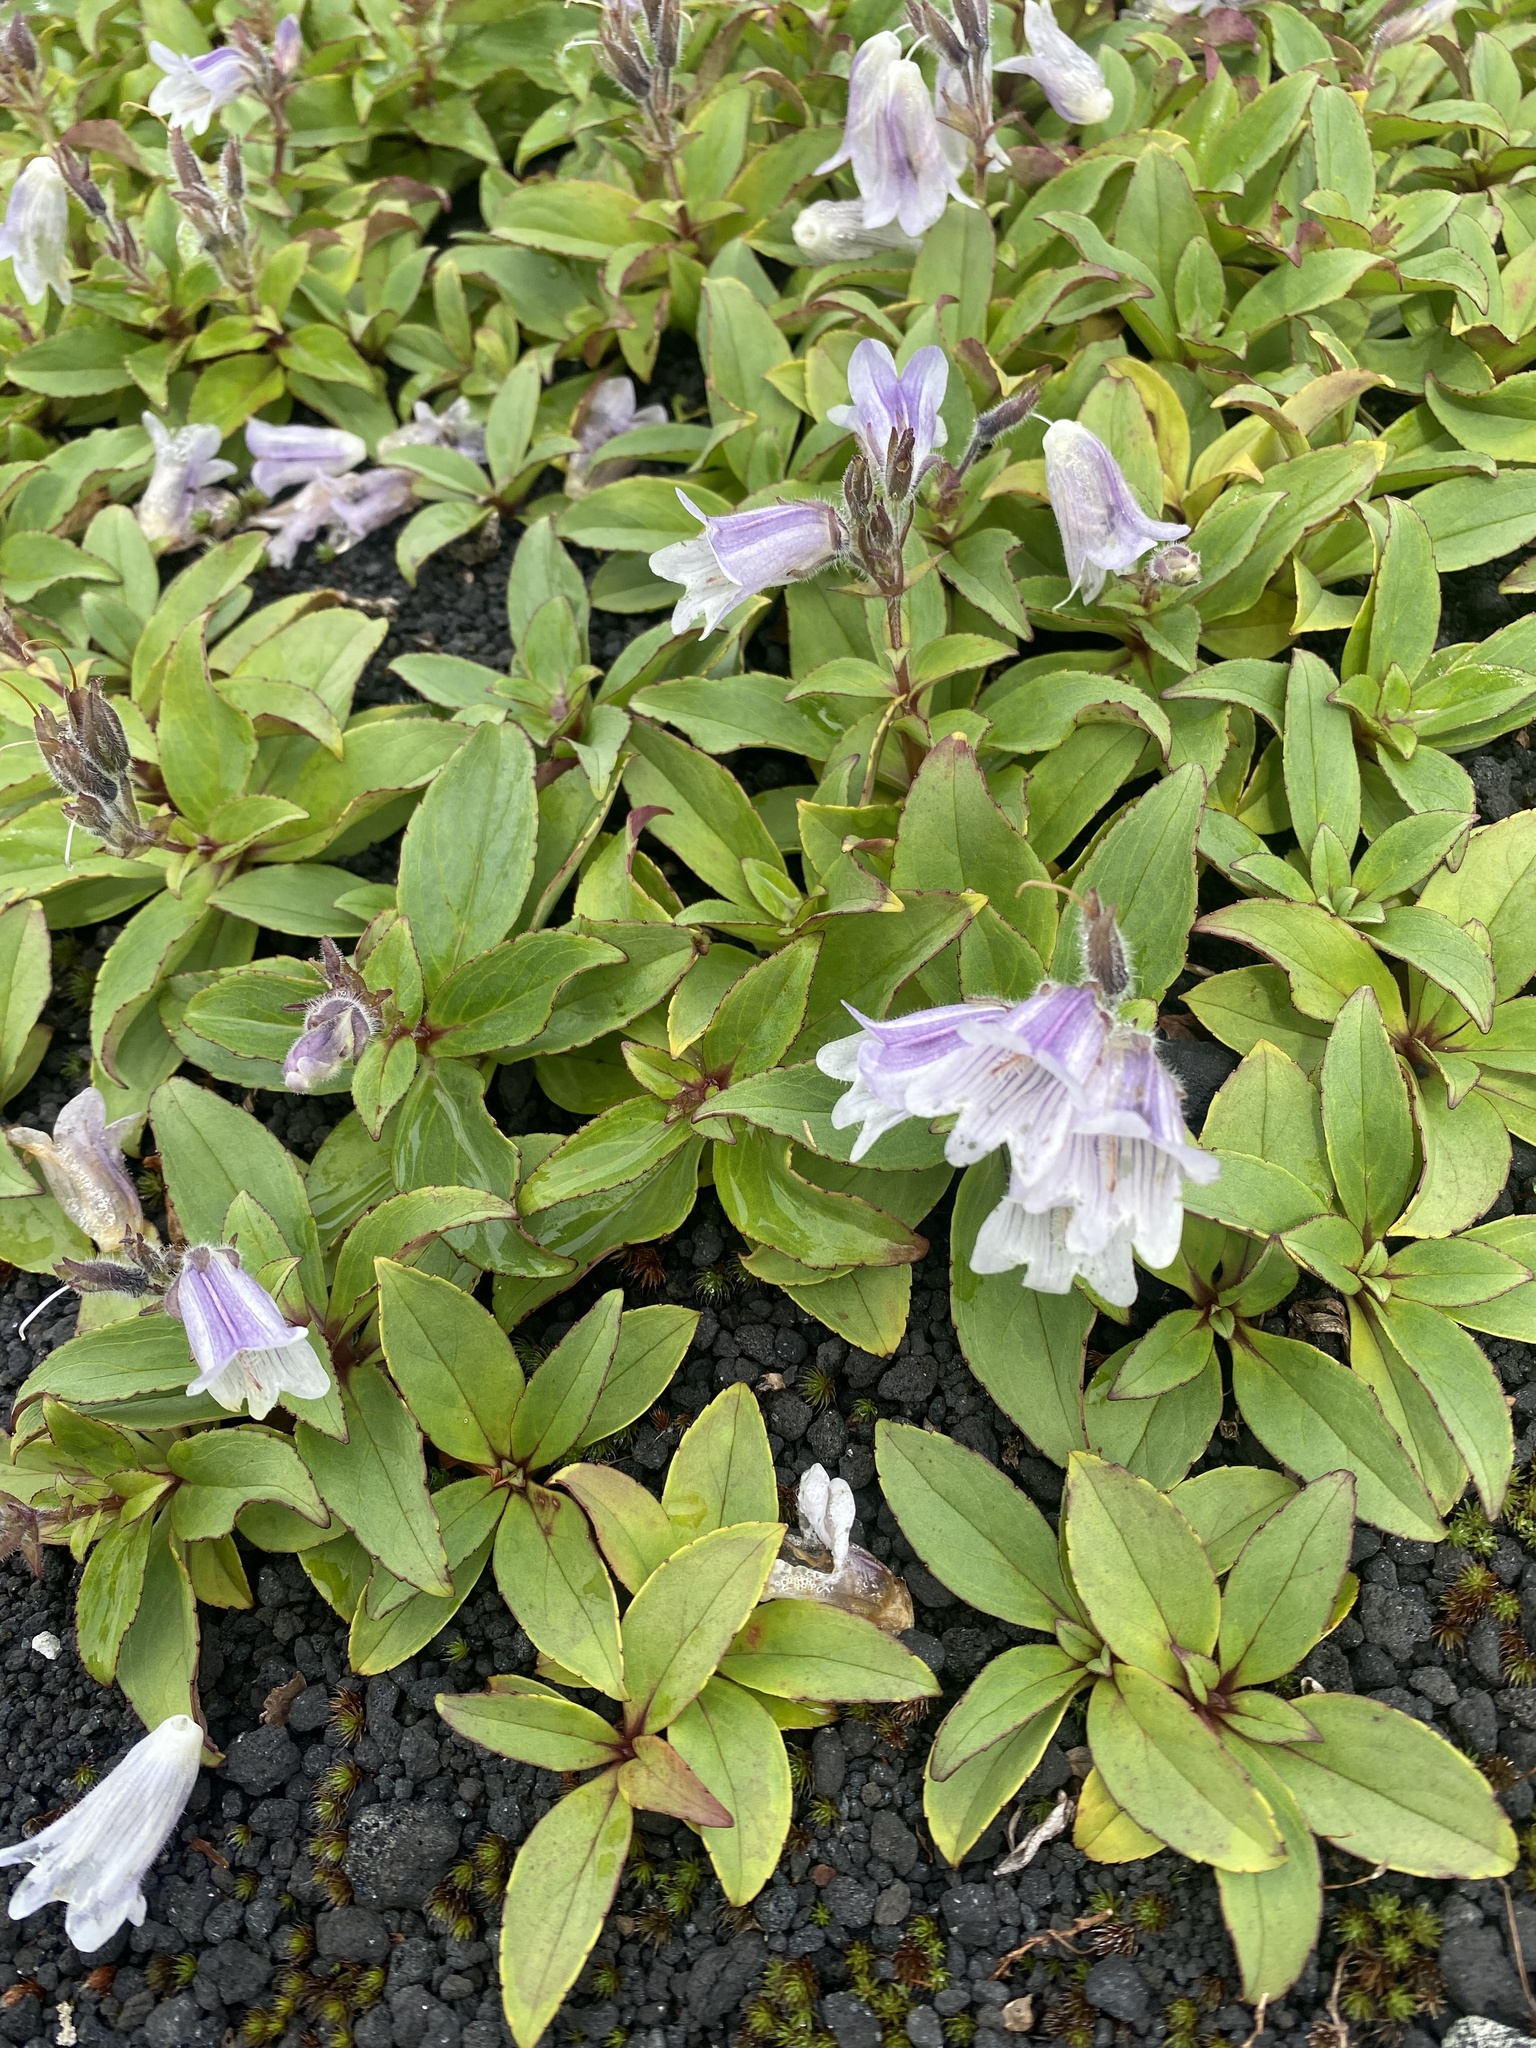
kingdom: Plantae
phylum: Tracheophyta
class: Magnoliopsida
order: Lamiales
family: Plantaginaceae
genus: Pennellianthus
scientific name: Pennellianthus frutescens
